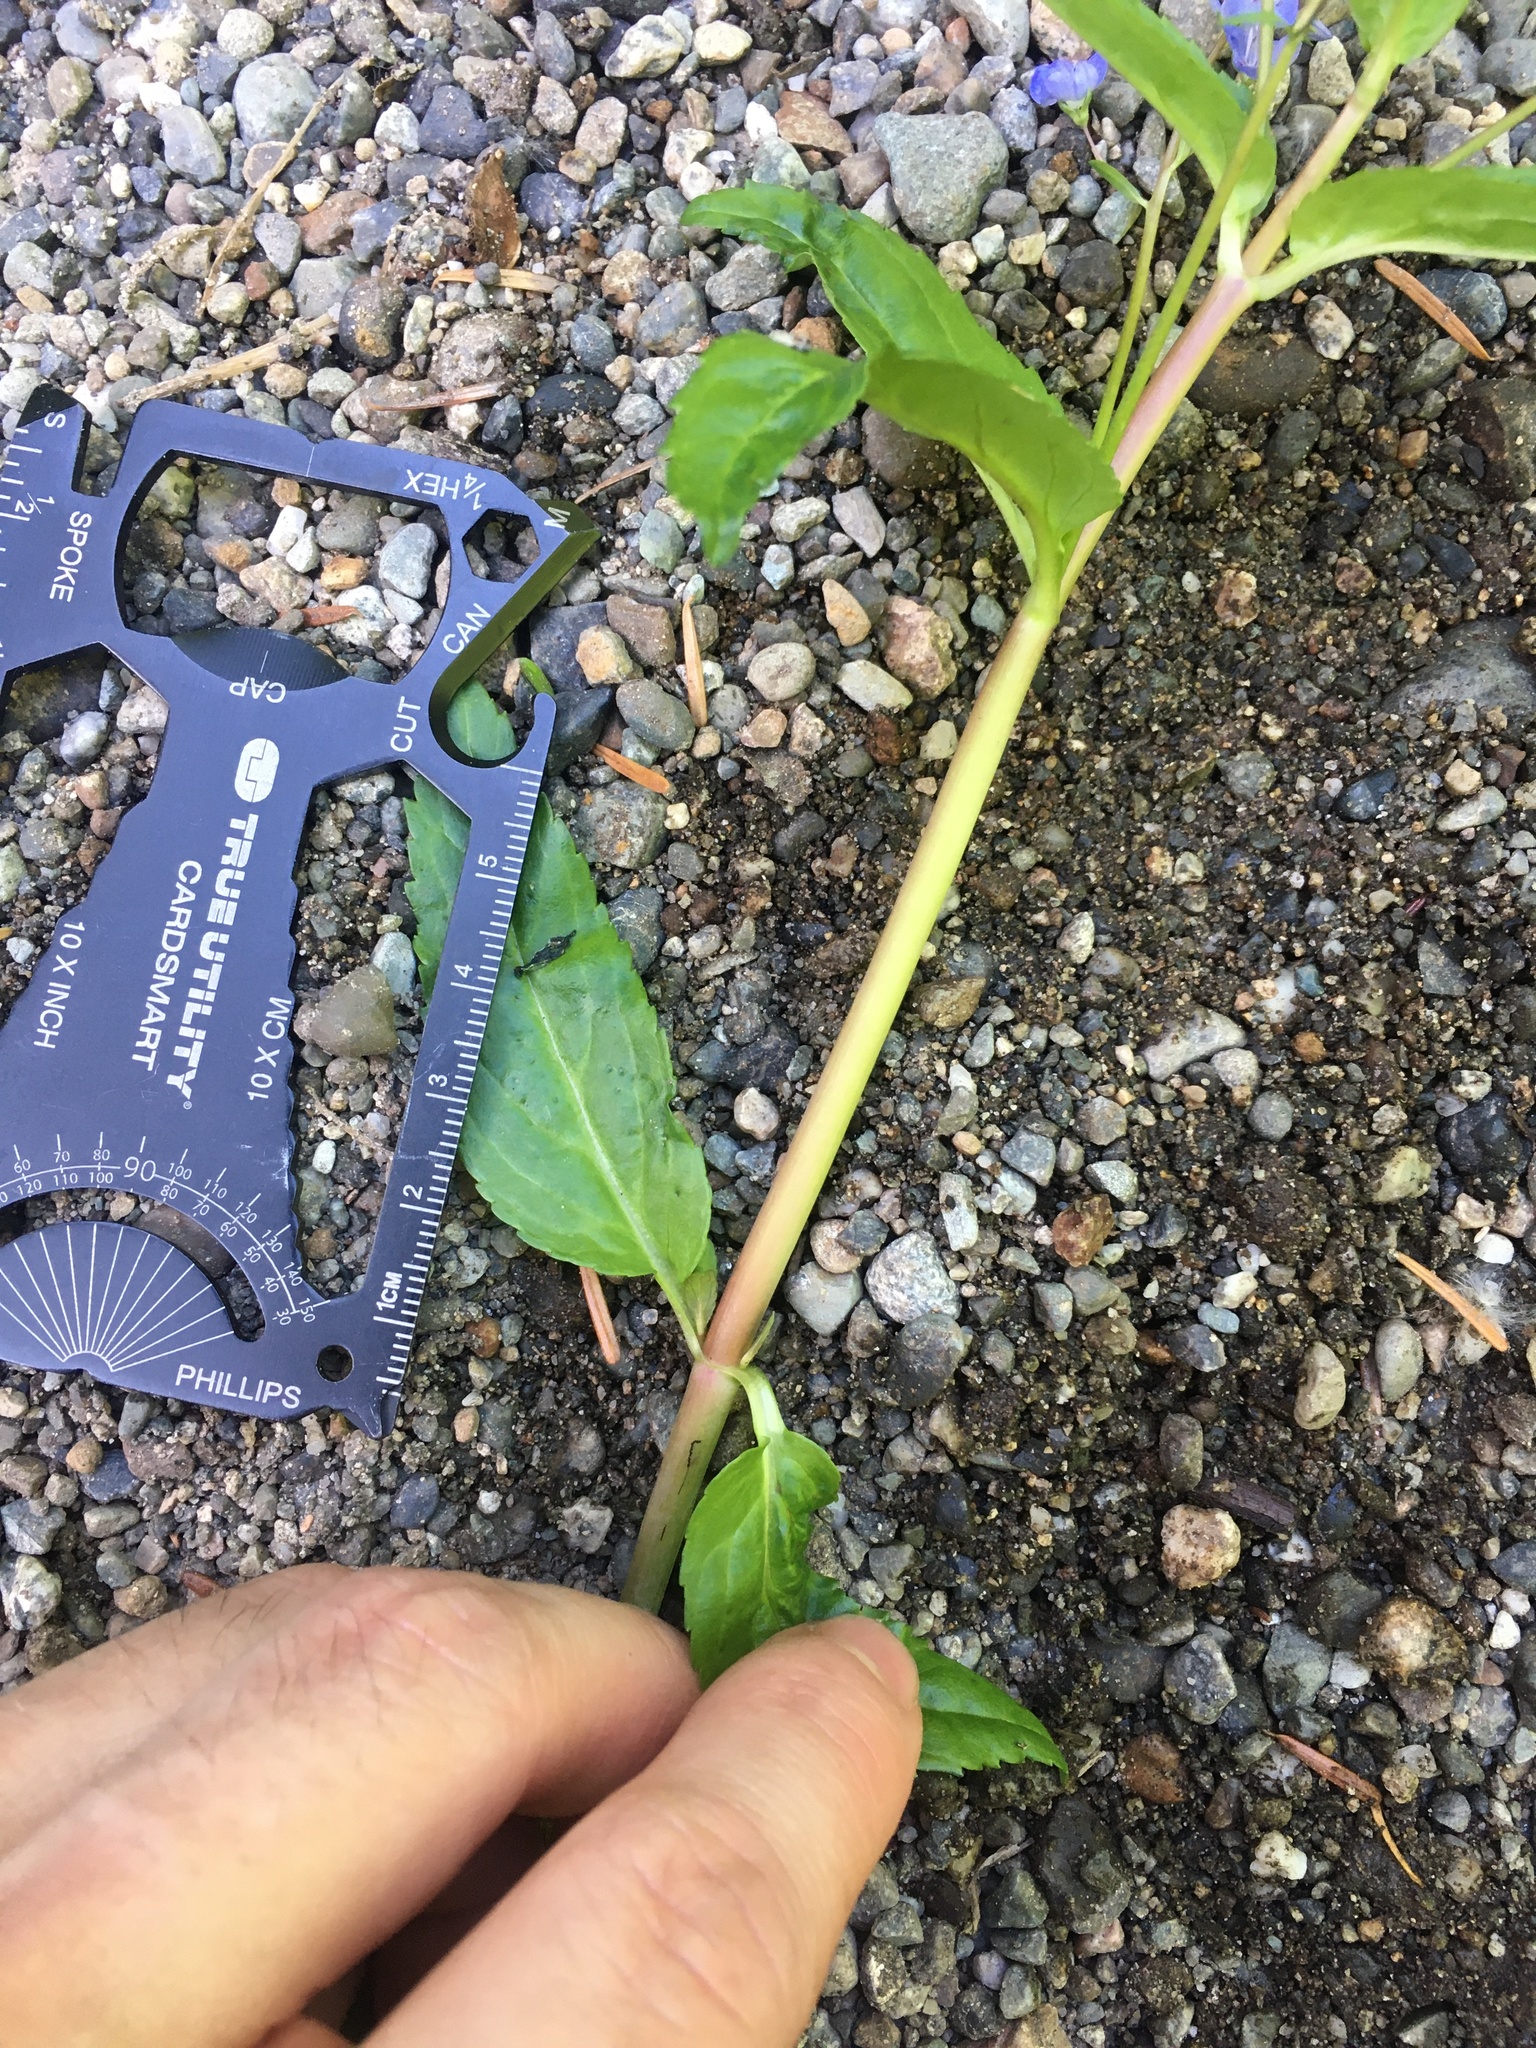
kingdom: Plantae
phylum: Tracheophyta
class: Magnoliopsida
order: Lamiales
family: Plantaginaceae
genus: Veronica
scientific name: Veronica americana
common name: American brooklime
